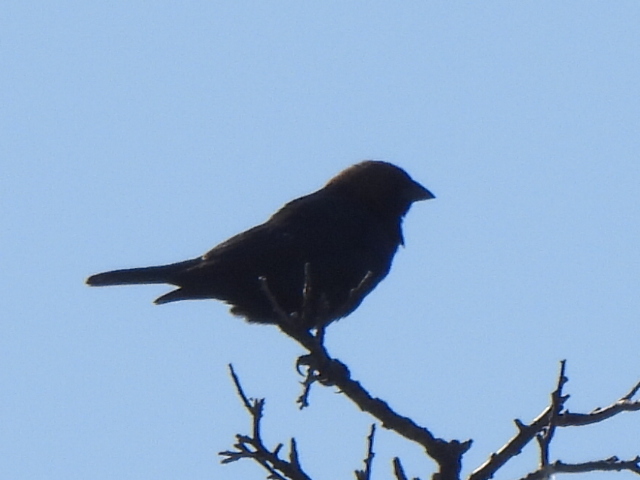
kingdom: Animalia
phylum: Chordata
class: Aves
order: Passeriformes
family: Icteridae
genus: Molothrus
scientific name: Molothrus ater
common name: Brown-headed cowbird
